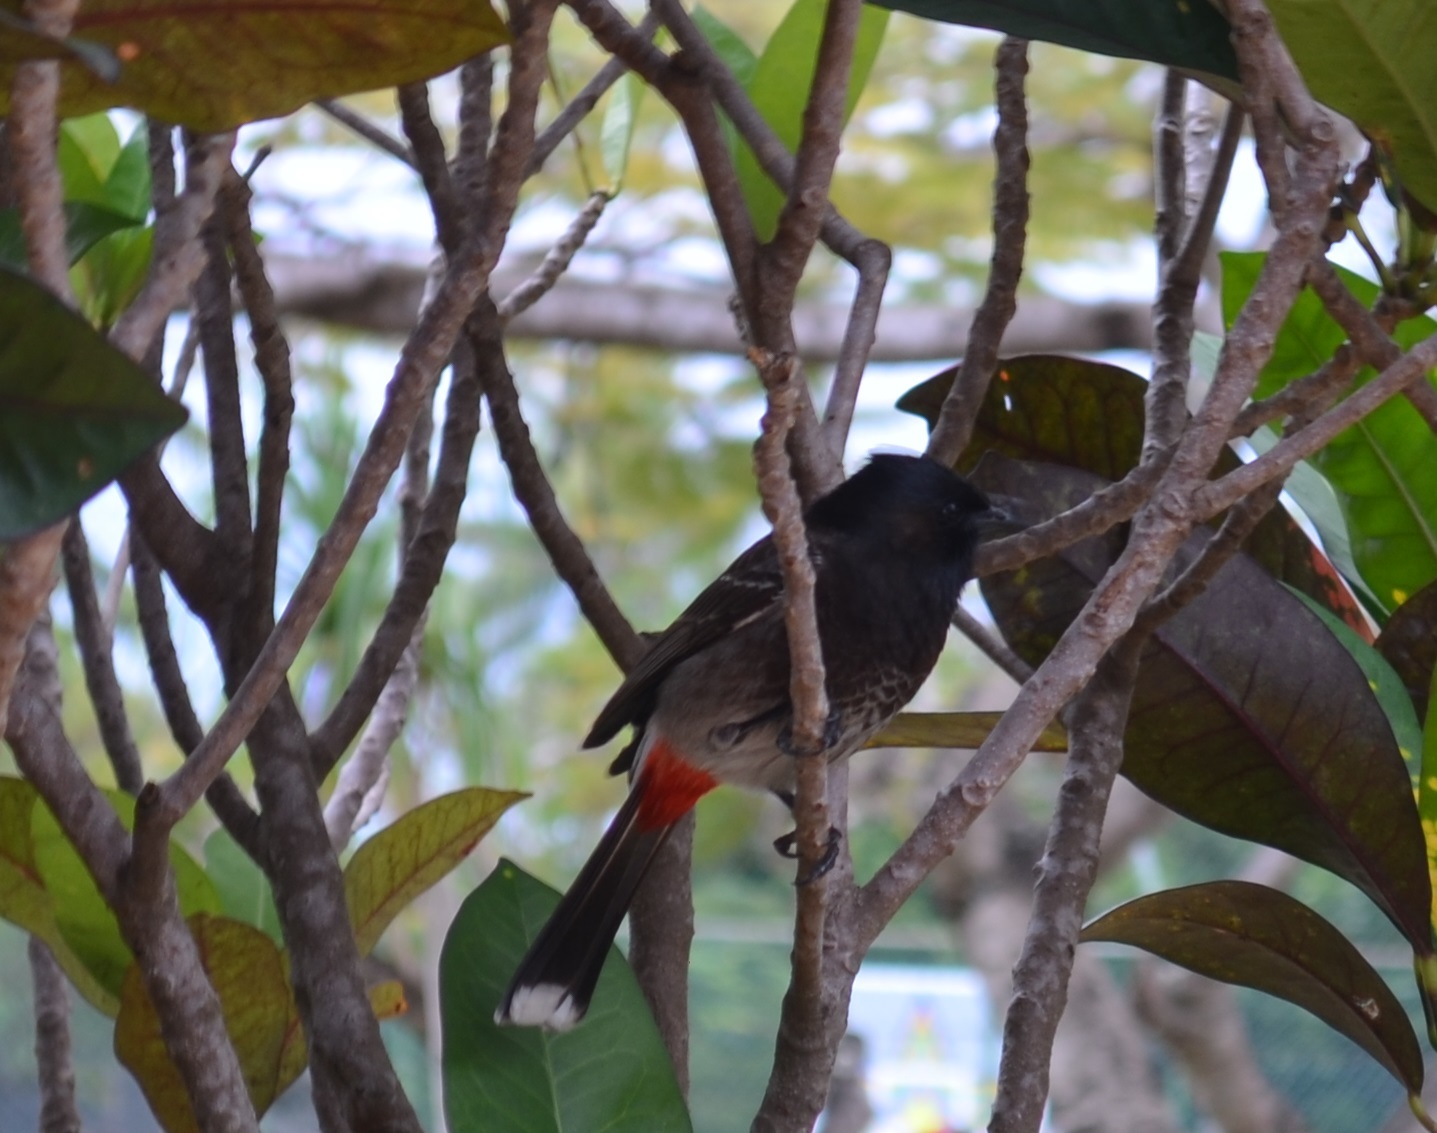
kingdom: Animalia
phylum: Chordata
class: Aves
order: Passeriformes
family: Pycnonotidae
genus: Pycnonotus
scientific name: Pycnonotus cafer
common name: Red-vented bulbul
